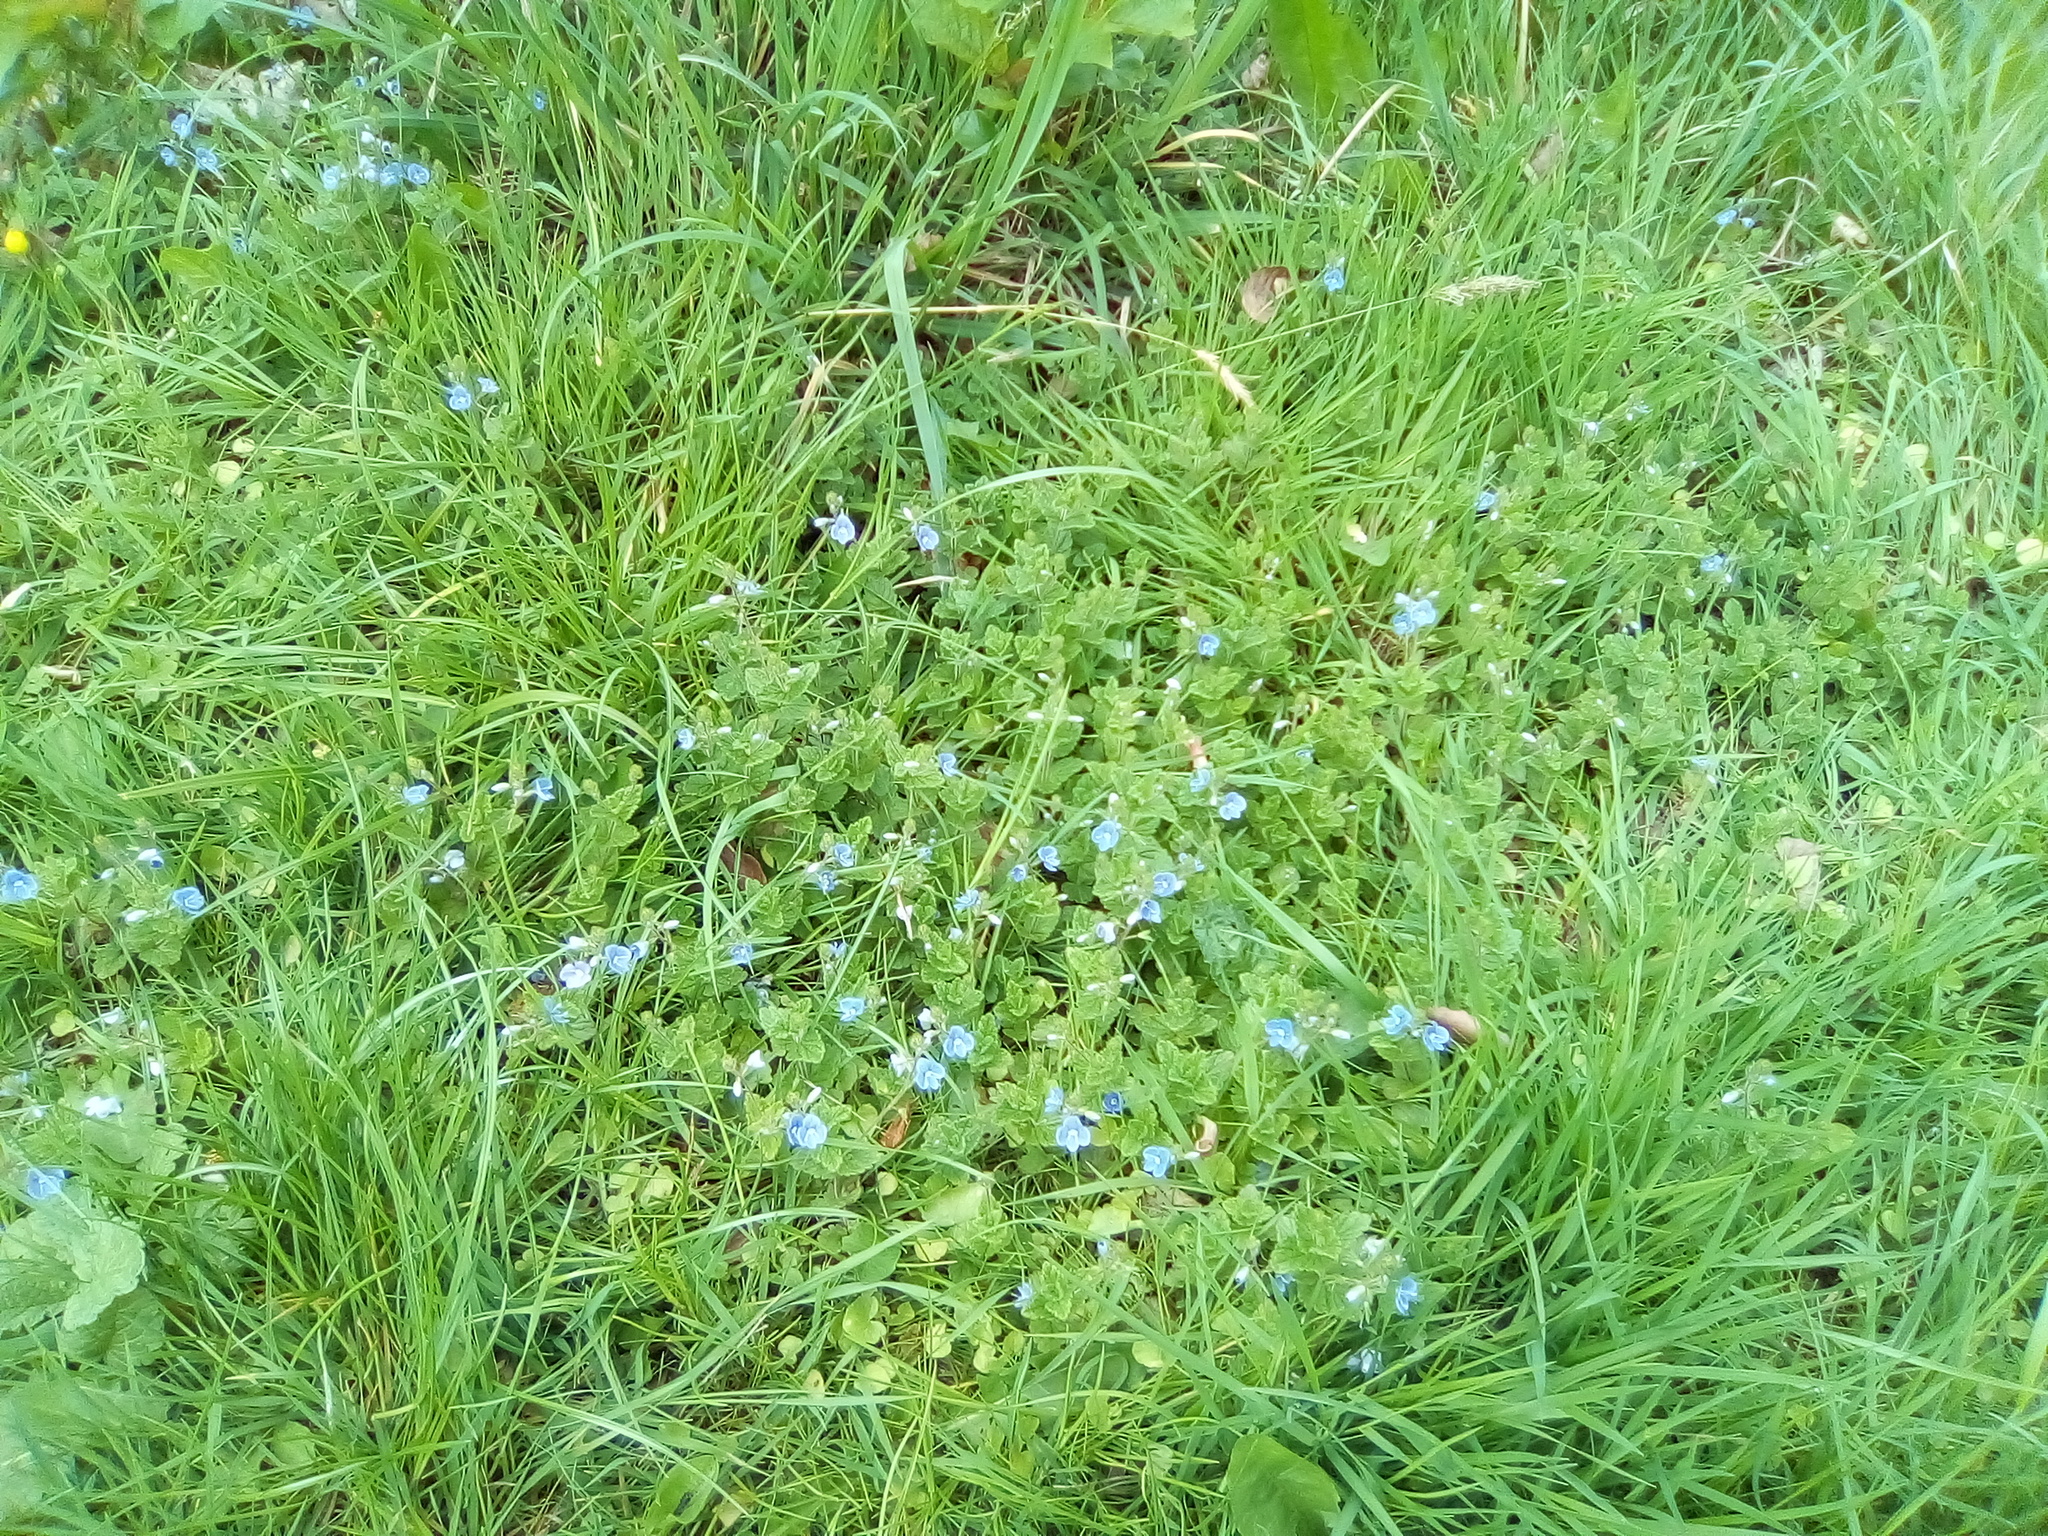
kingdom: Plantae
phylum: Tracheophyta
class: Magnoliopsida
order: Lamiales
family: Plantaginaceae
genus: Veronica
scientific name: Veronica chamaedrys
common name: Germander speedwell
